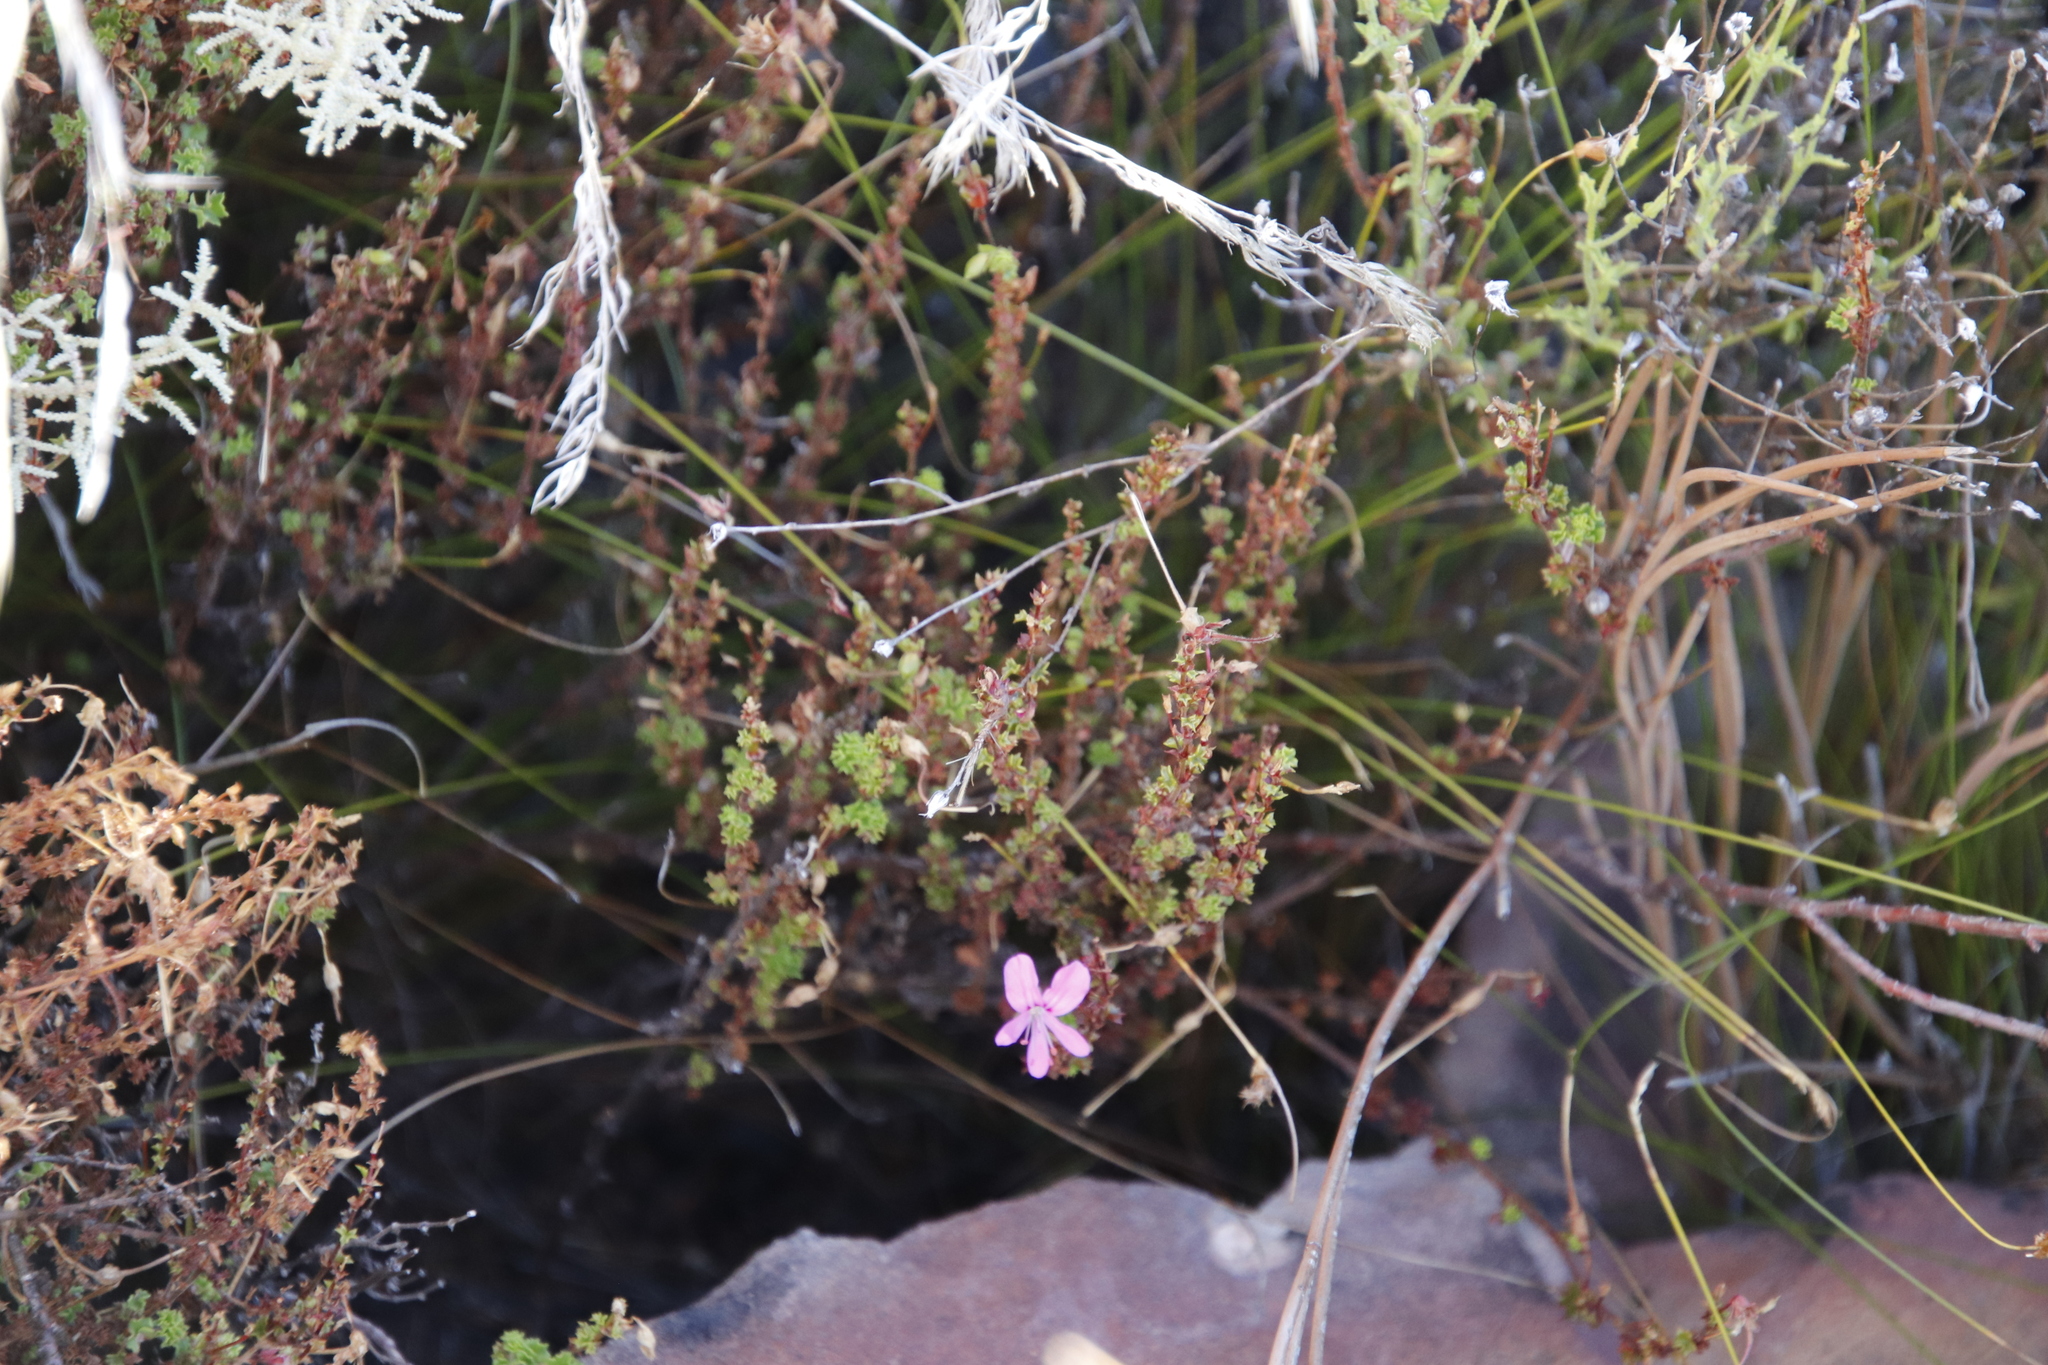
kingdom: Plantae
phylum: Tracheophyta
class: Magnoliopsida
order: Geraniales
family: Geraniaceae
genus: Pelargonium
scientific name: Pelargonium englerianum
